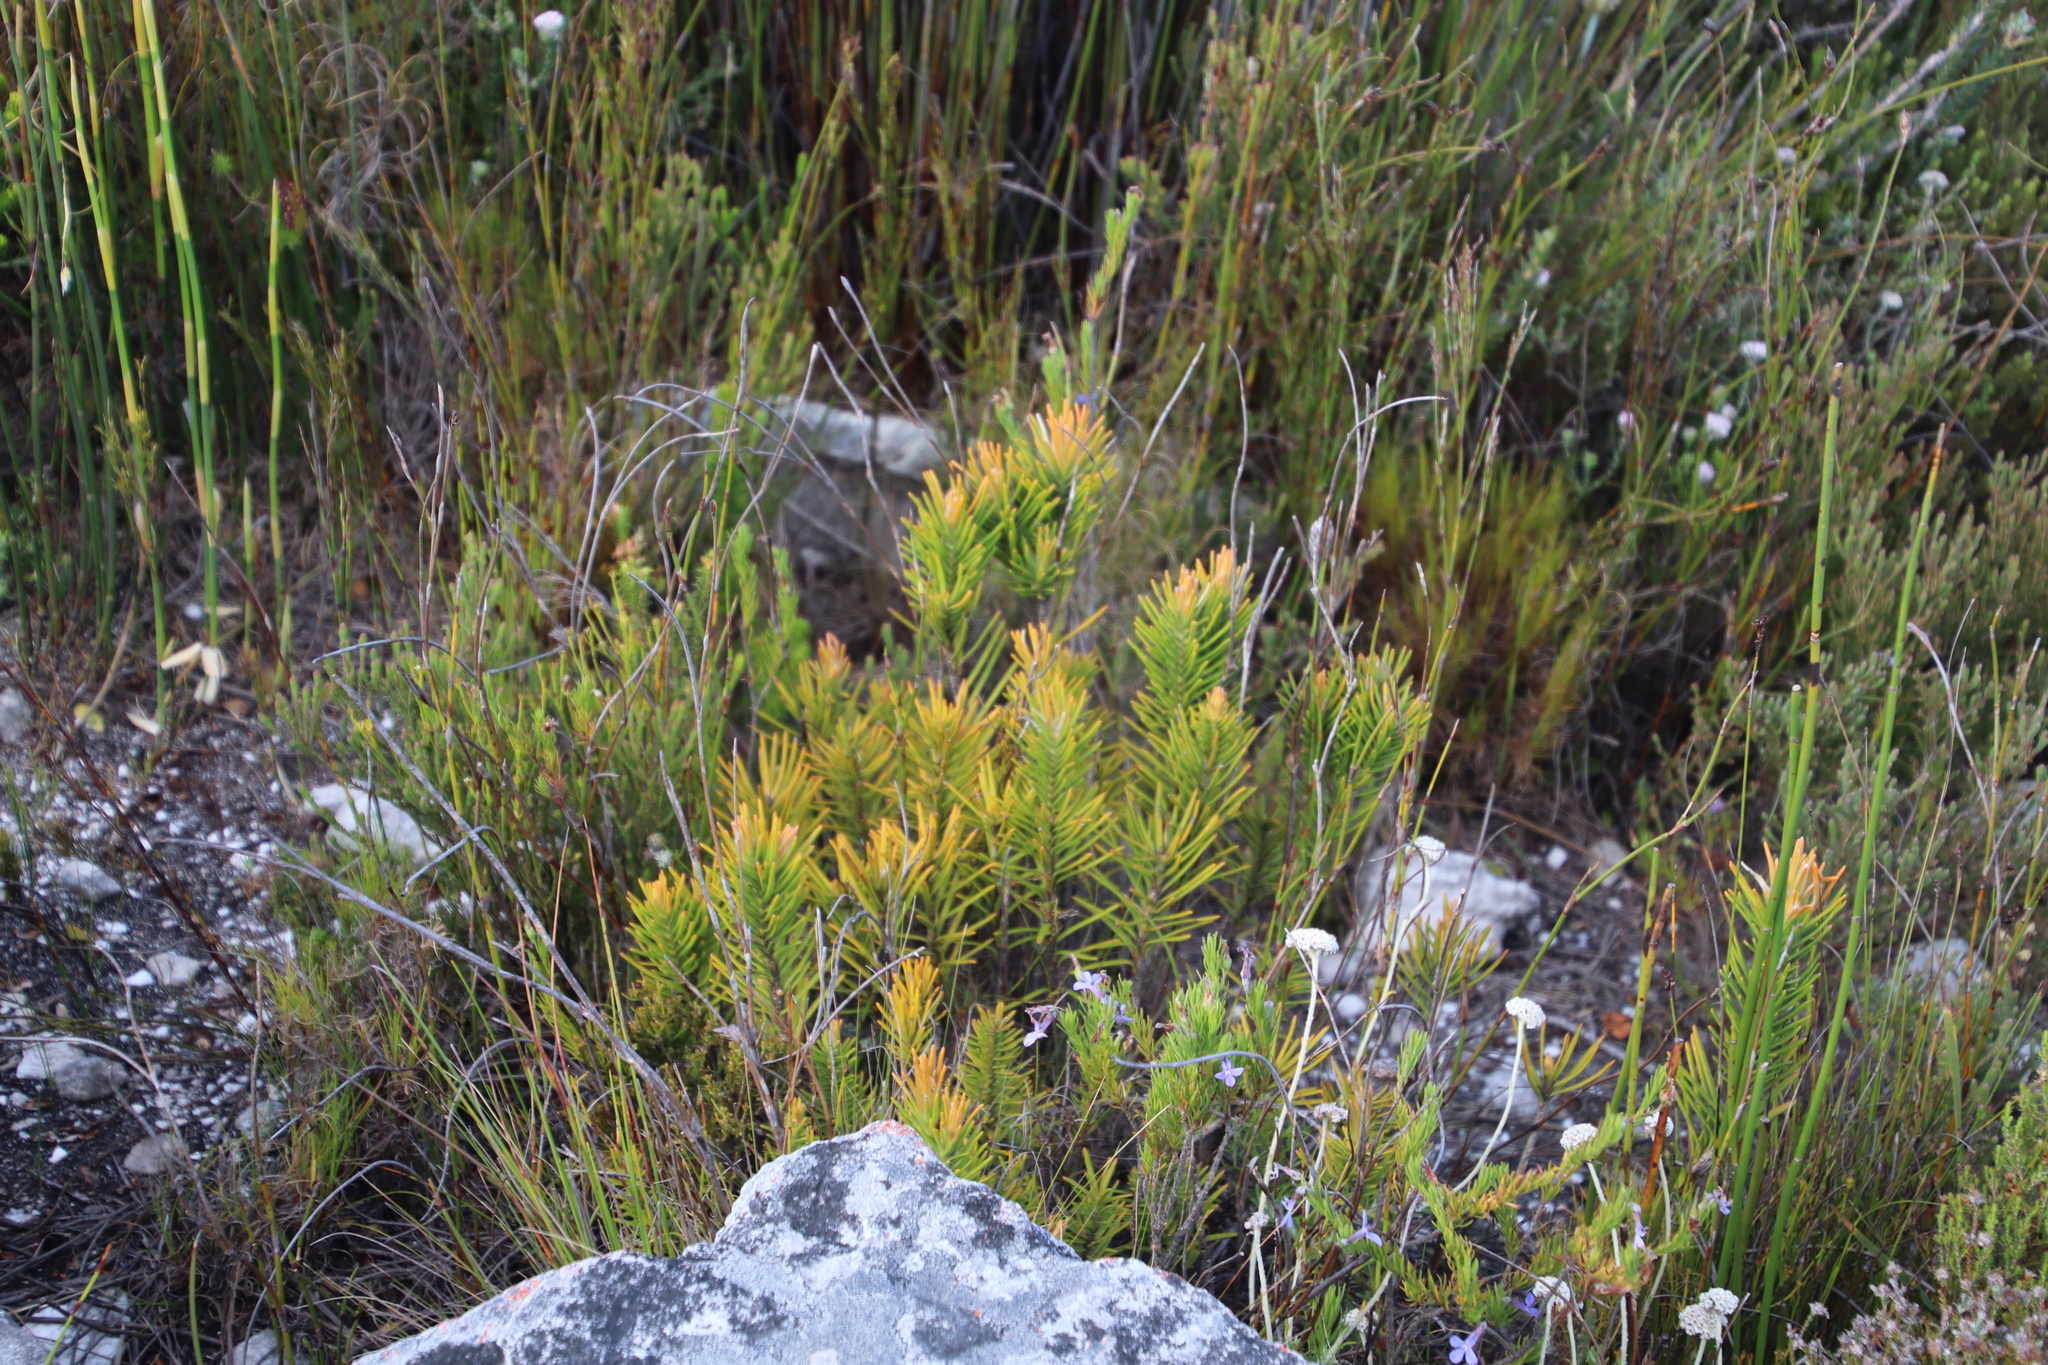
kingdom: Plantae
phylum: Tracheophyta
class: Magnoliopsida
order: Lamiales
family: Stilbaceae
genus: Retzia
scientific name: Retzia capensis
